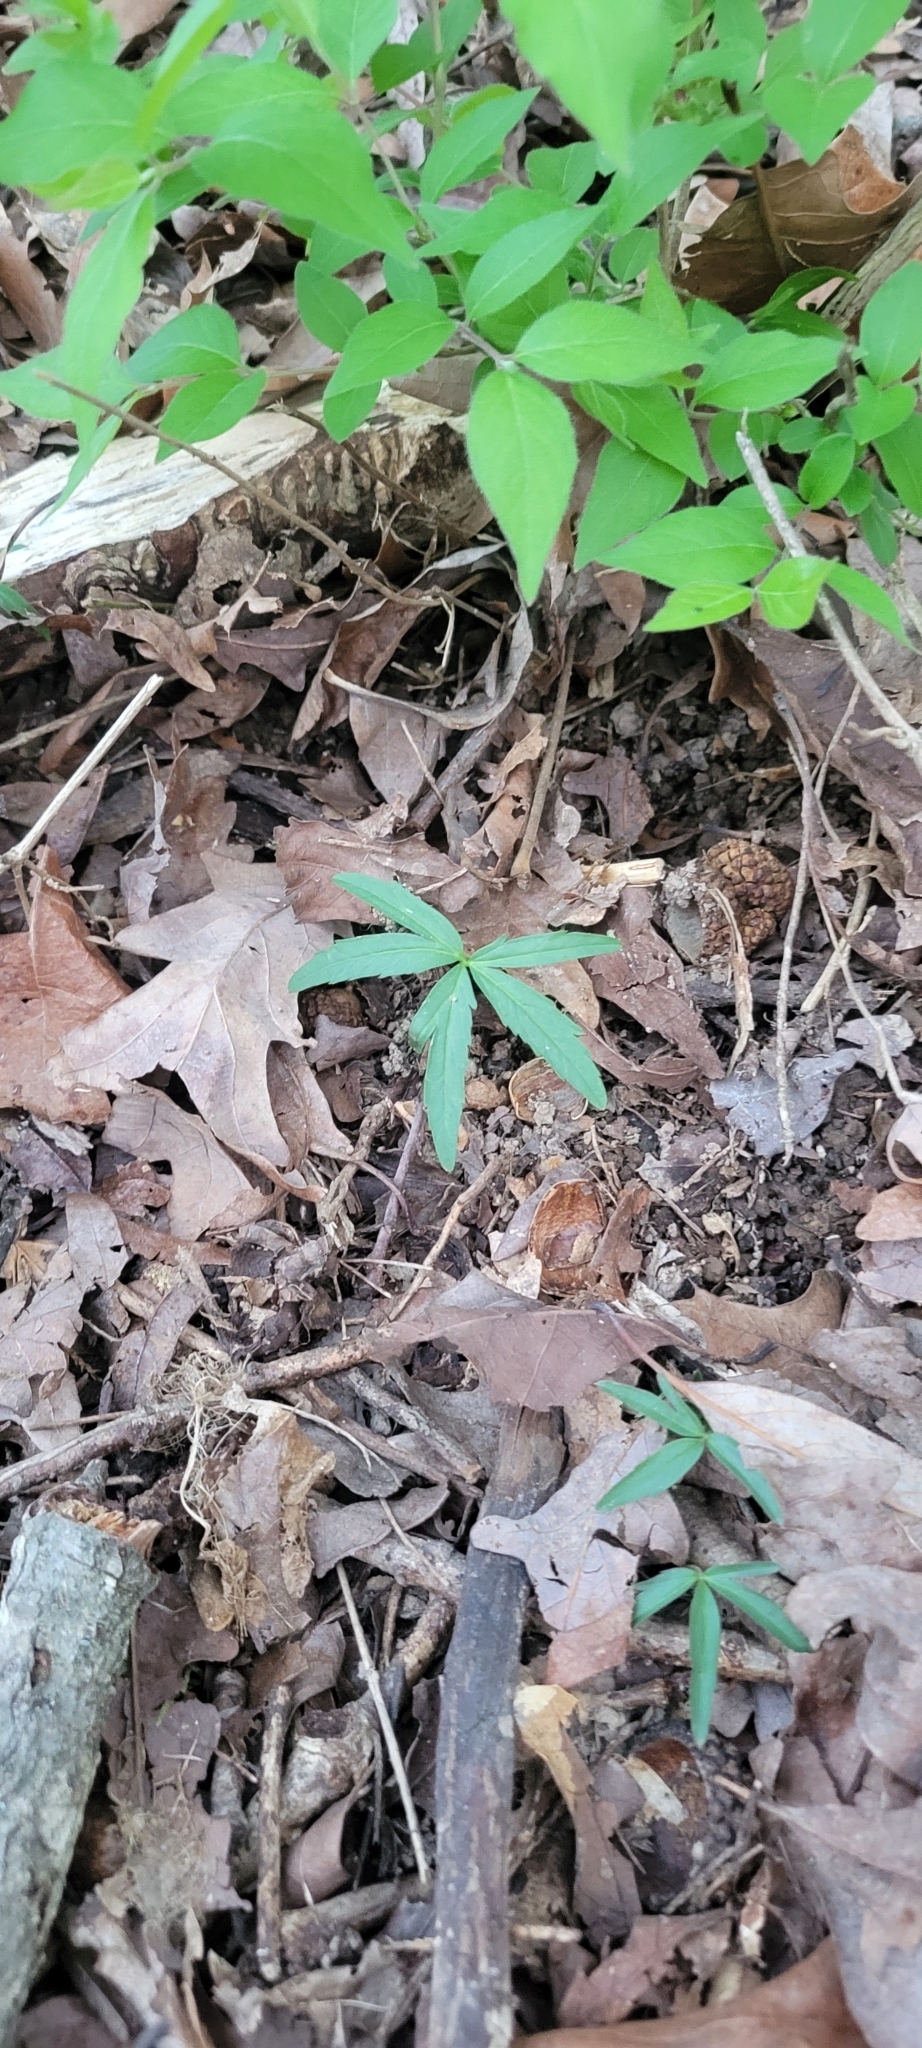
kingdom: Plantae
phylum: Tracheophyta
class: Magnoliopsida
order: Brassicales
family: Brassicaceae
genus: Cardamine
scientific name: Cardamine concatenata
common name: Cut-leaf toothcup
